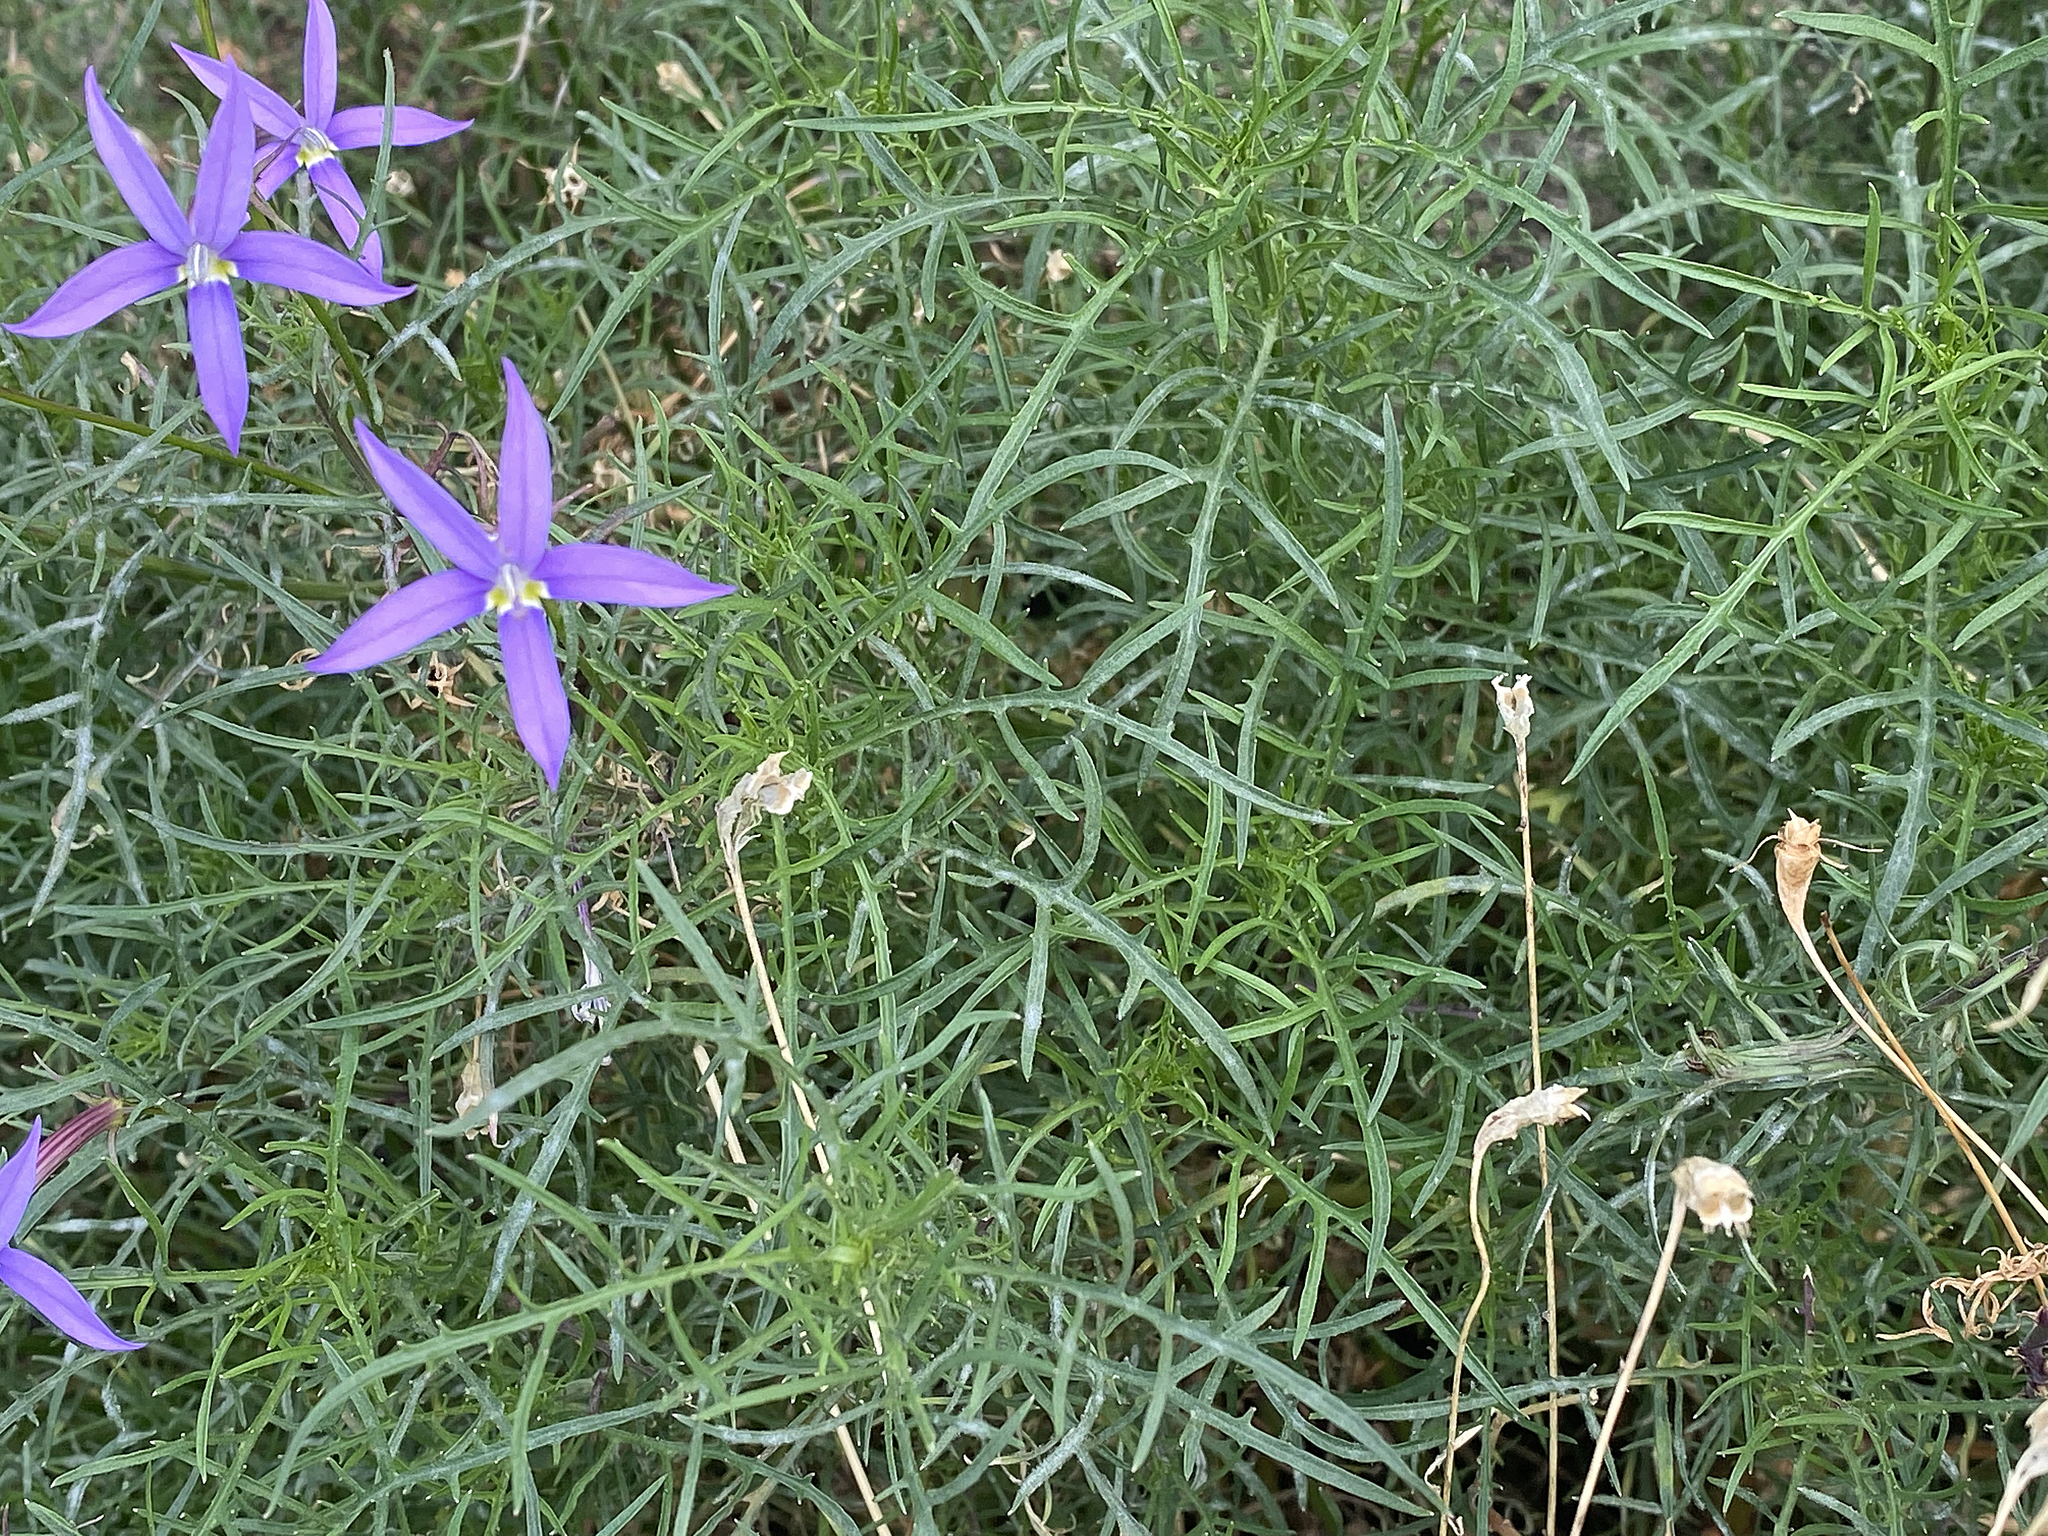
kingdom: Plantae
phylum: Tracheophyta
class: Magnoliopsida
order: Asterales
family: Campanulaceae
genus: Lithotoma
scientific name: Lithotoma axillaris
